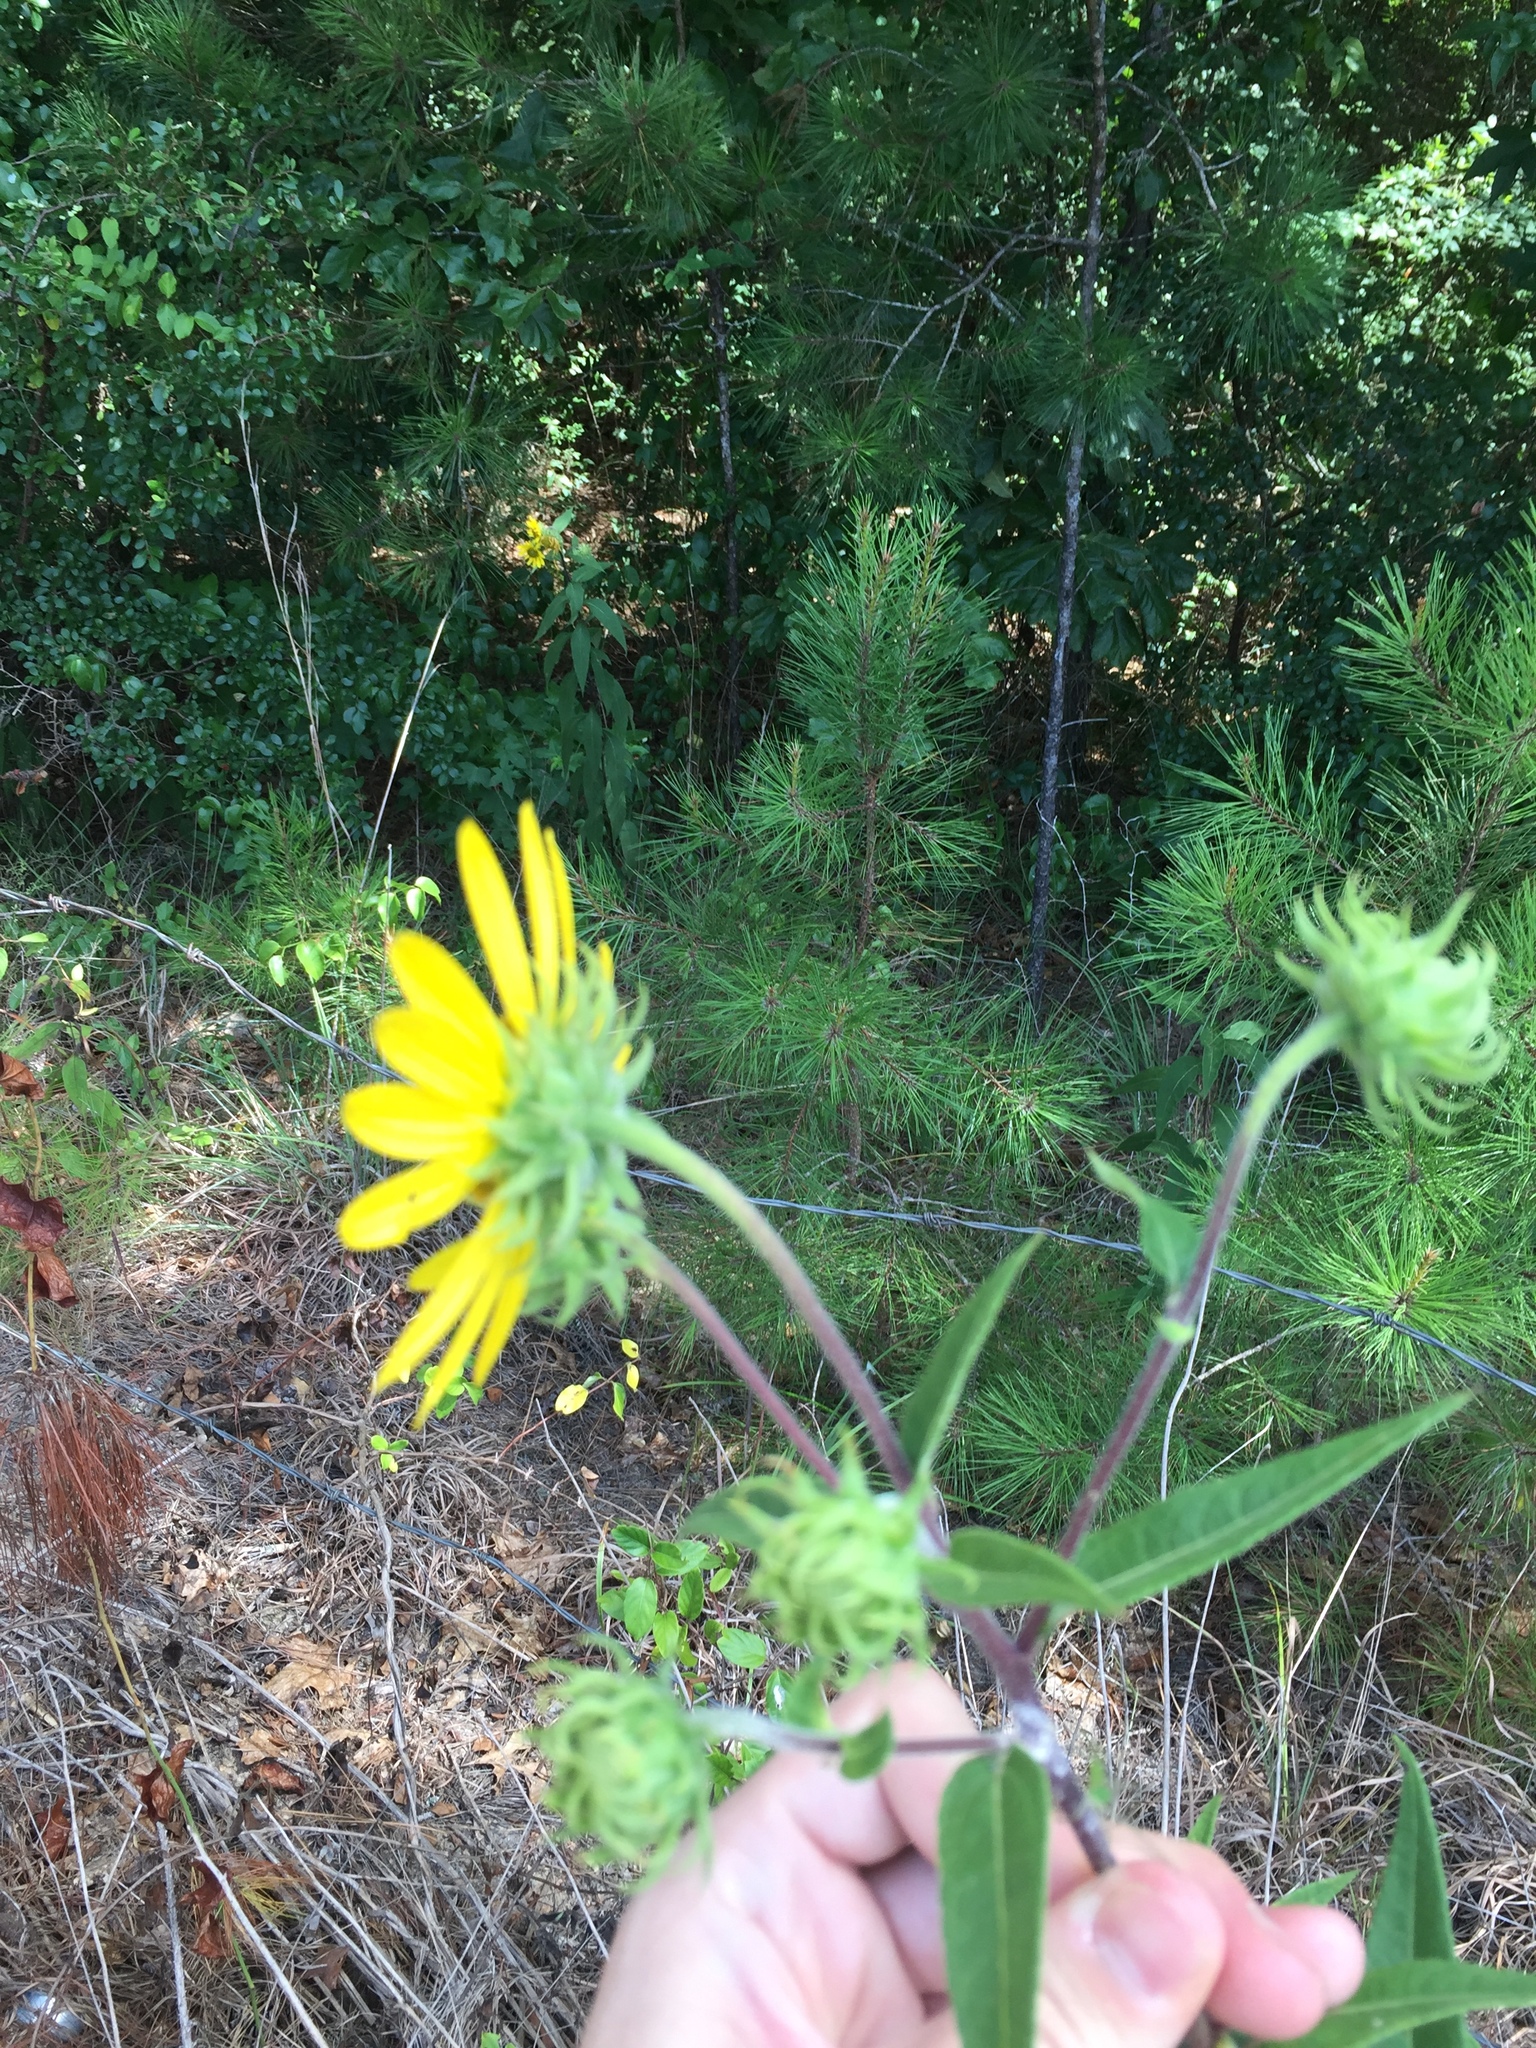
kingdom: Plantae
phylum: Tracheophyta
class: Magnoliopsida
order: Asterales
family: Asteraceae
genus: Helianthus
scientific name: Helianthus resinosus
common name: Resin-dot sunflower
